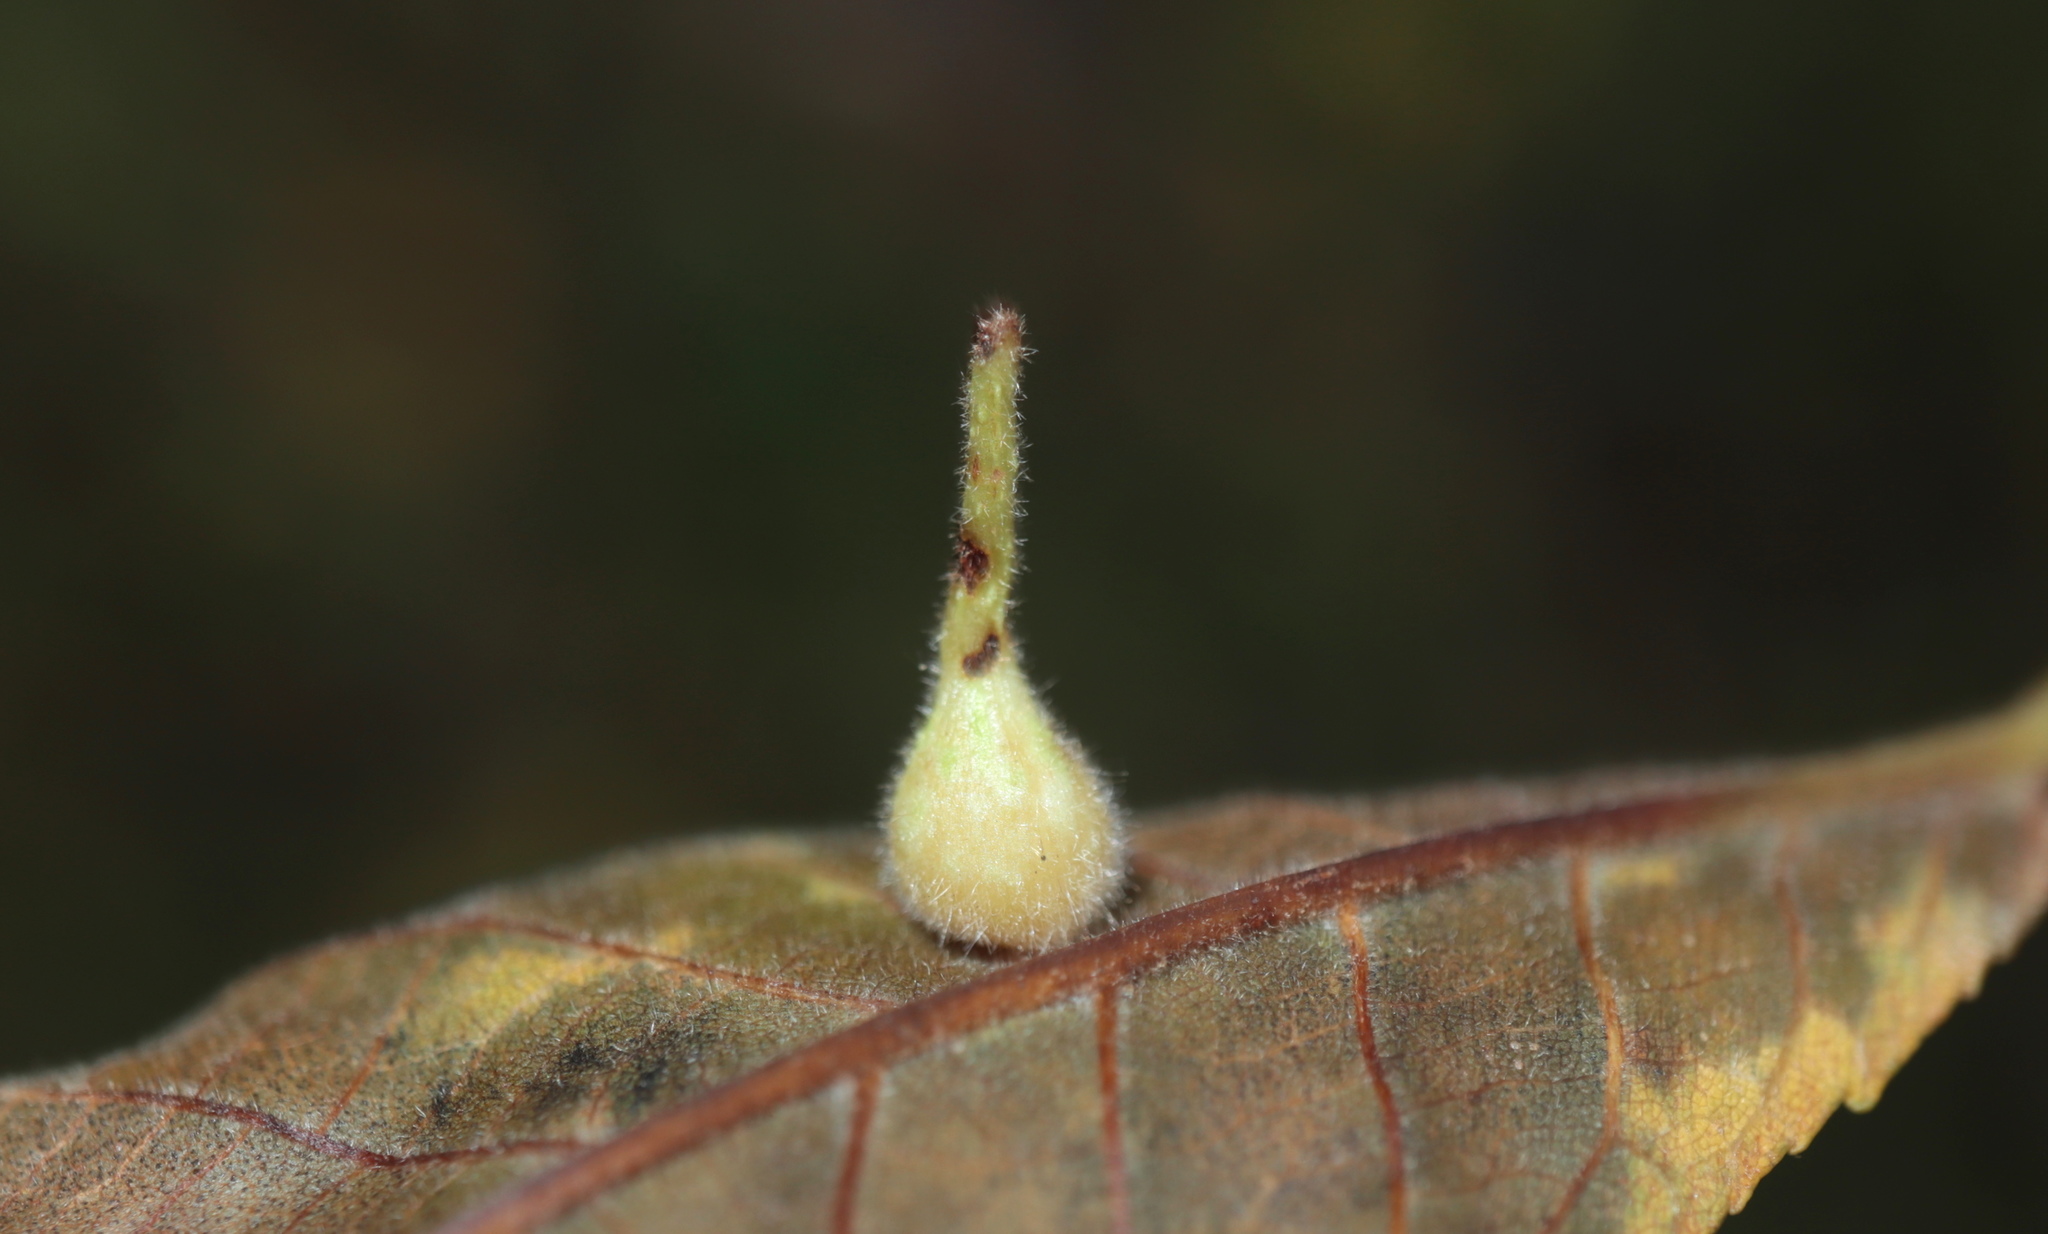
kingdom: Animalia
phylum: Arthropoda
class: Insecta
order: Diptera
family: Cecidomyiidae
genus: Caryomyia
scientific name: Caryomyia ansericollum
